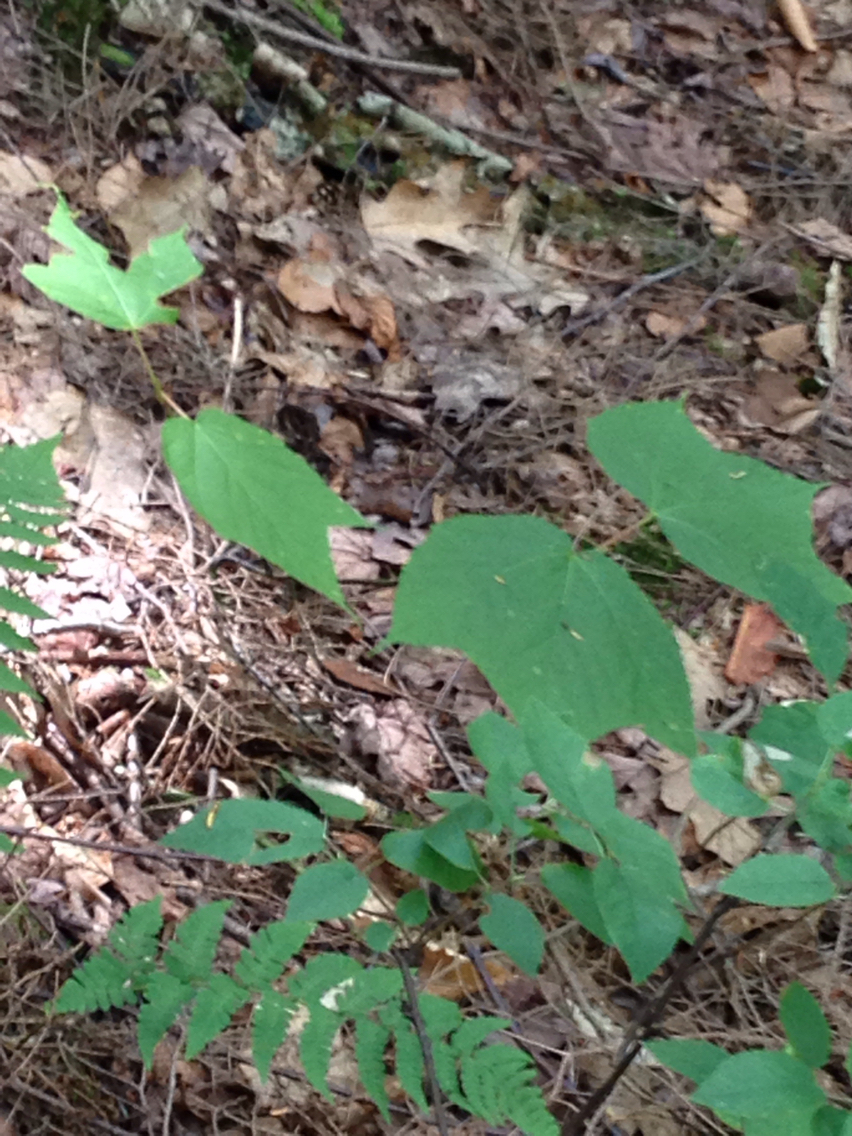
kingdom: Plantae
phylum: Tracheophyta
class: Magnoliopsida
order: Sapindales
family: Sapindaceae
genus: Acer
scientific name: Acer pensylvanicum
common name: Moosewood
